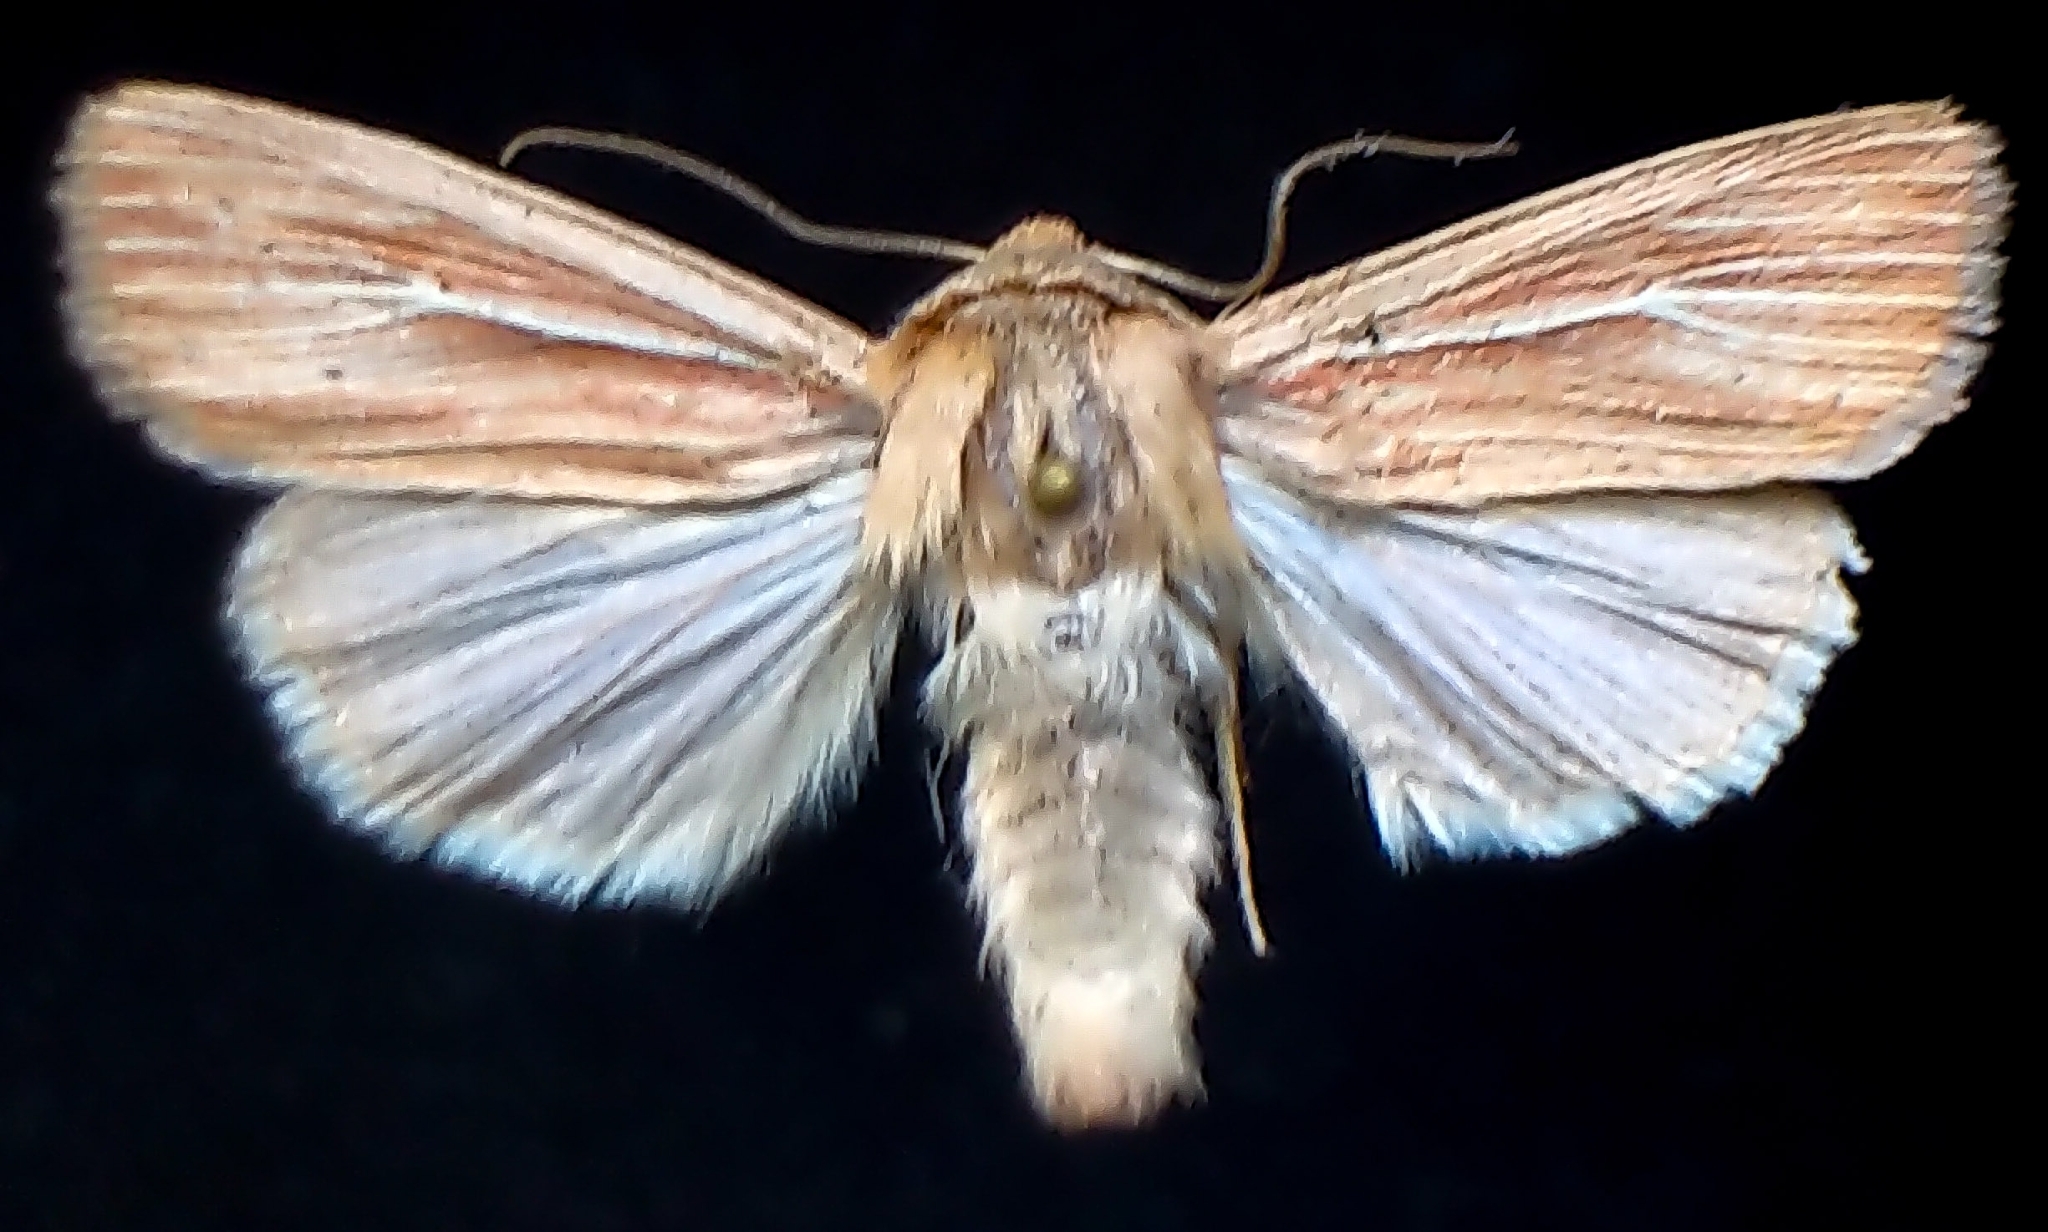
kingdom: Animalia
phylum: Arthropoda
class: Insecta
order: Lepidoptera
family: Noctuidae
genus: Leucania
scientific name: Leucania farcta
